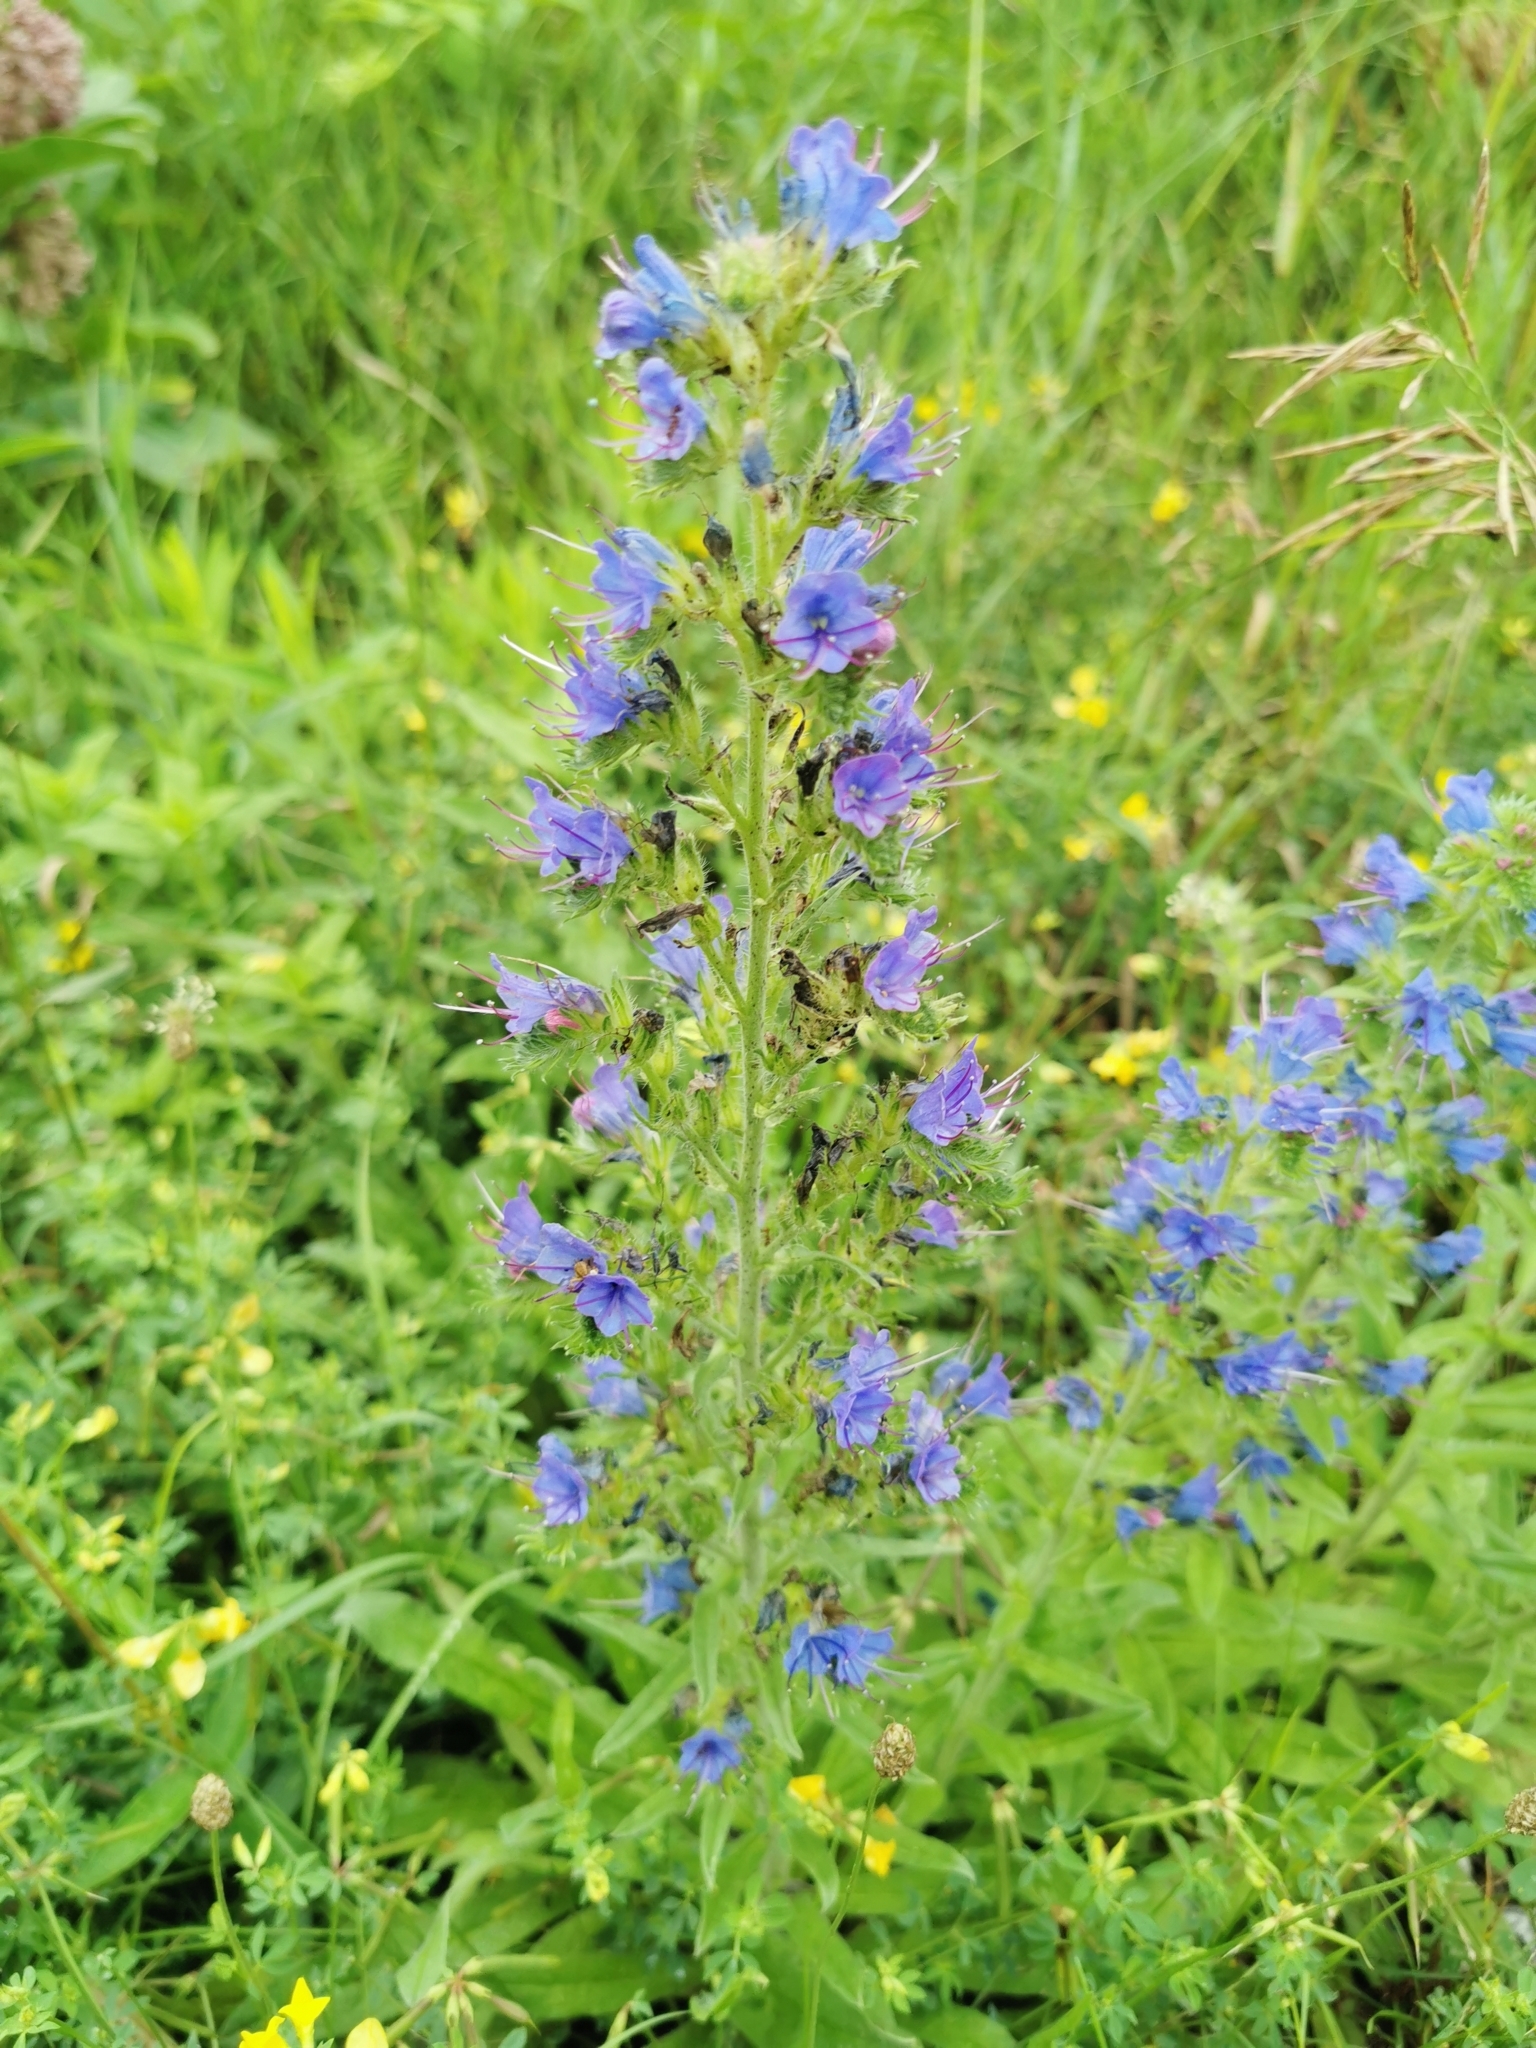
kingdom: Plantae
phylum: Tracheophyta
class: Magnoliopsida
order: Boraginales
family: Boraginaceae
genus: Echium
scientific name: Echium vulgare
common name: Common viper's bugloss
